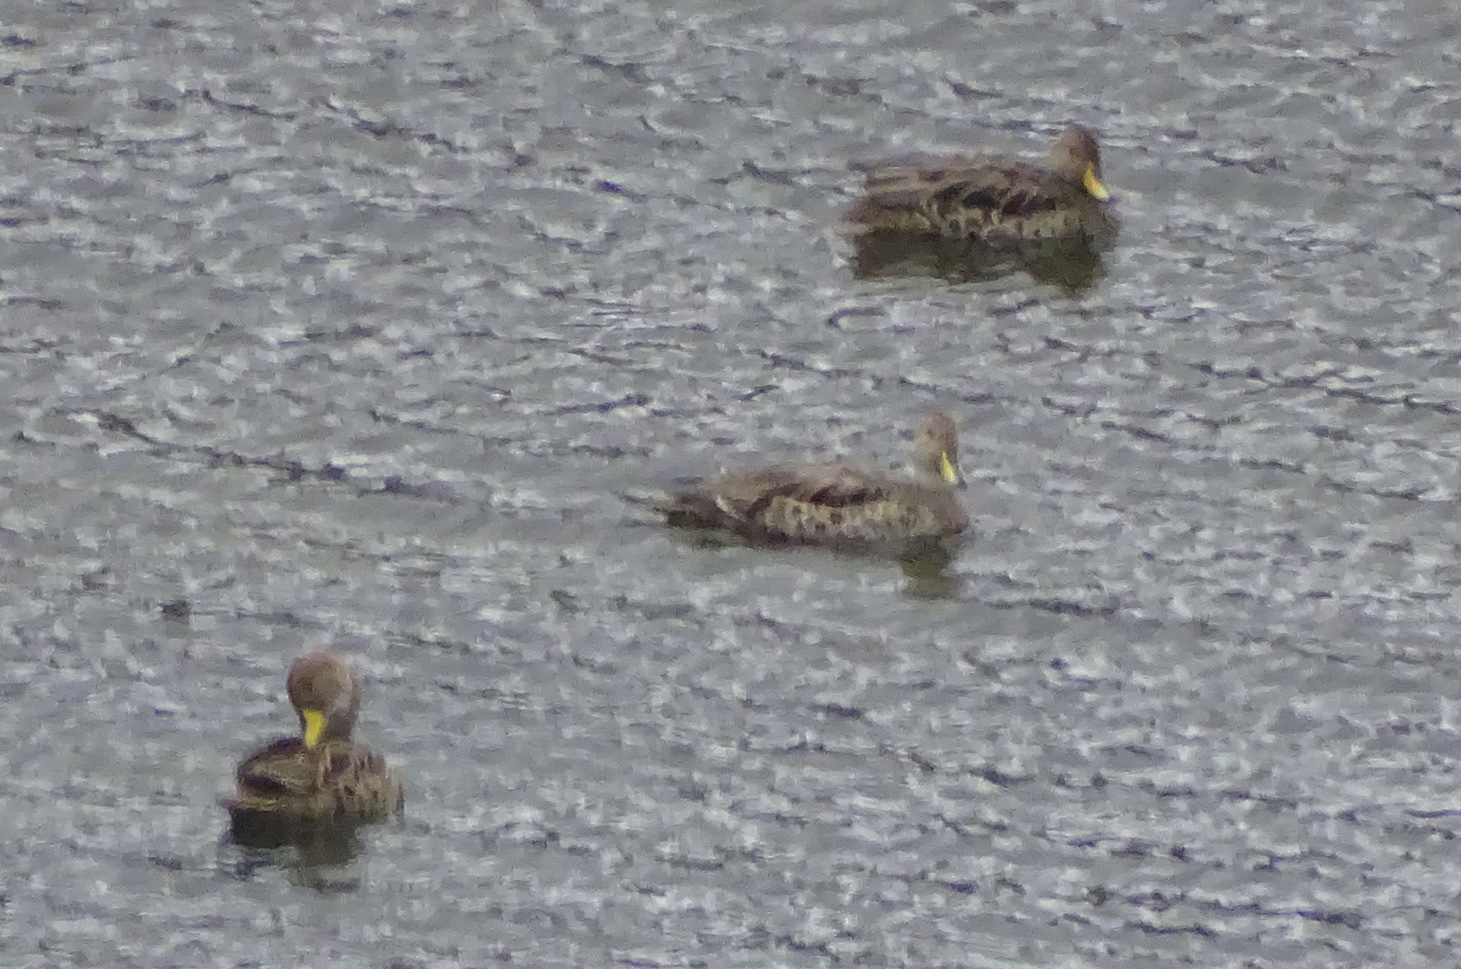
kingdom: Animalia
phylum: Chordata
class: Aves
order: Anseriformes
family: Anatidae
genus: Anas
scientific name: Anas georgica
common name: Yellow-billed pintail
